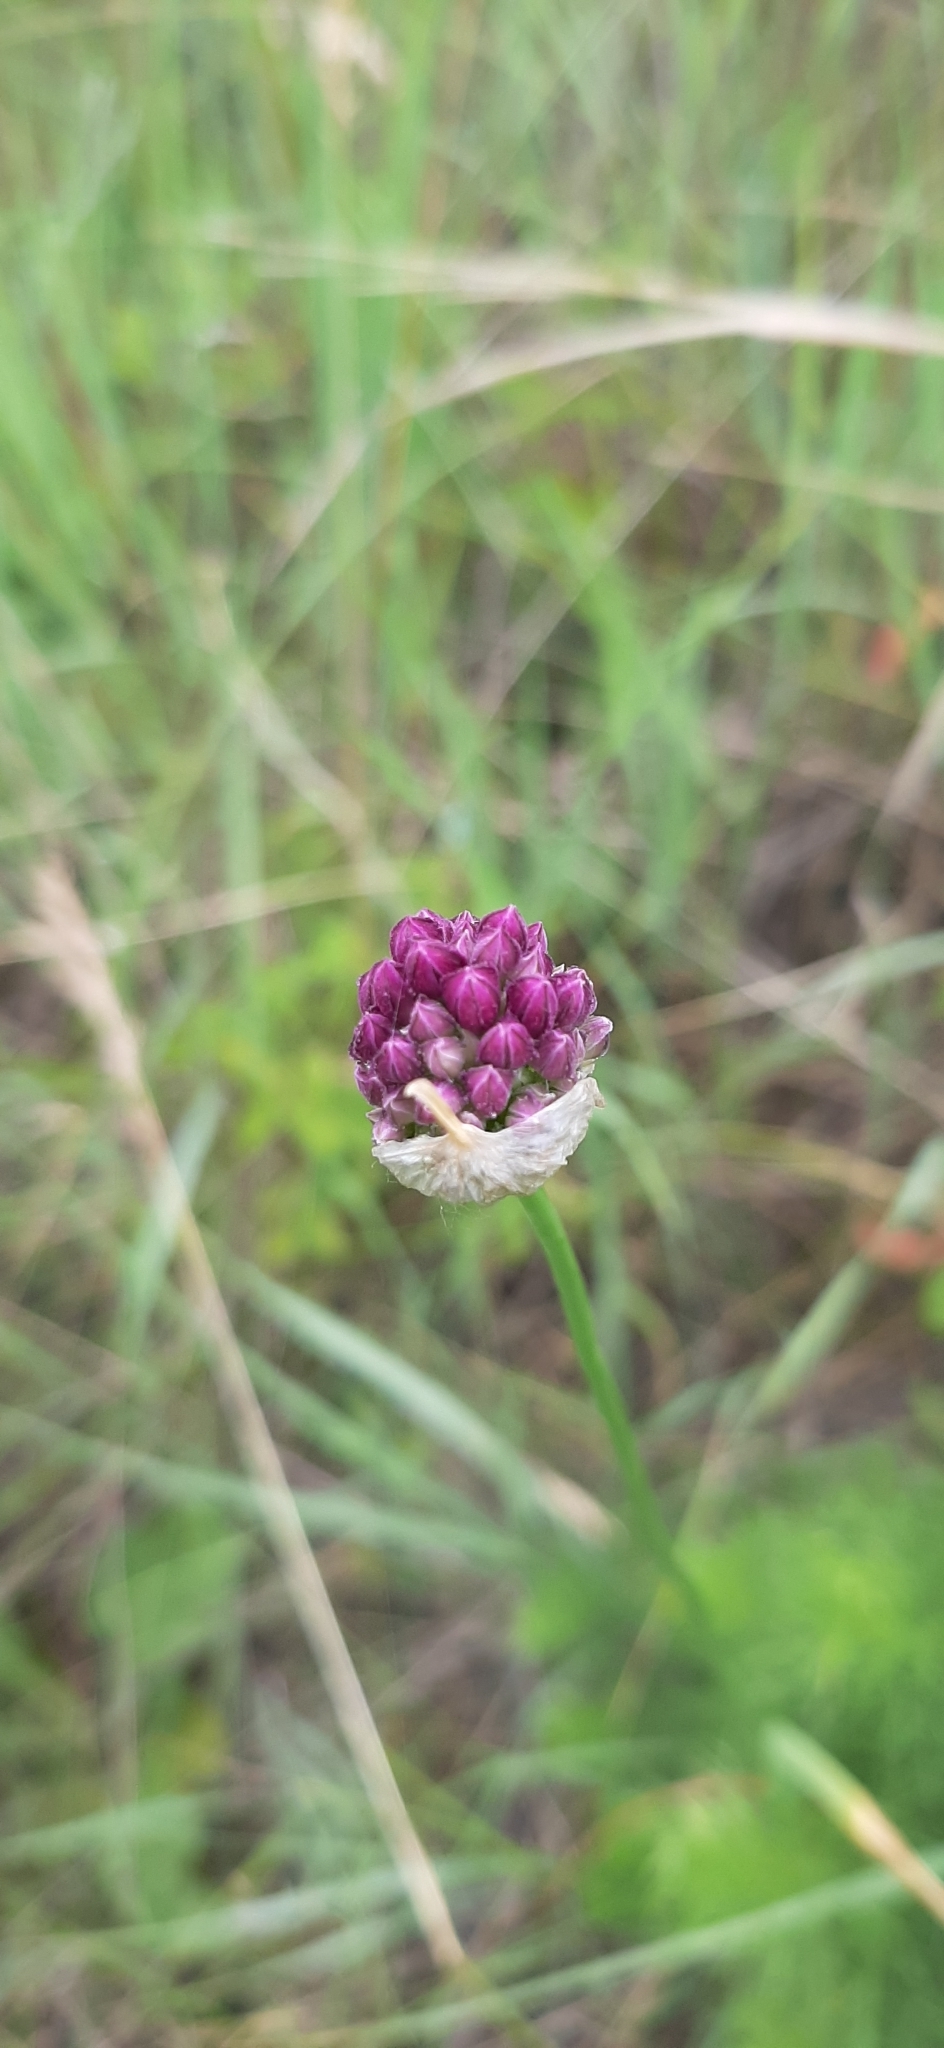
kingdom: Plantae
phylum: Tracheophyta
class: Liliopsida
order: Asparagales
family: Amaryllidaceae
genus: Allium
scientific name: Allium rotundum
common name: Sand leek
